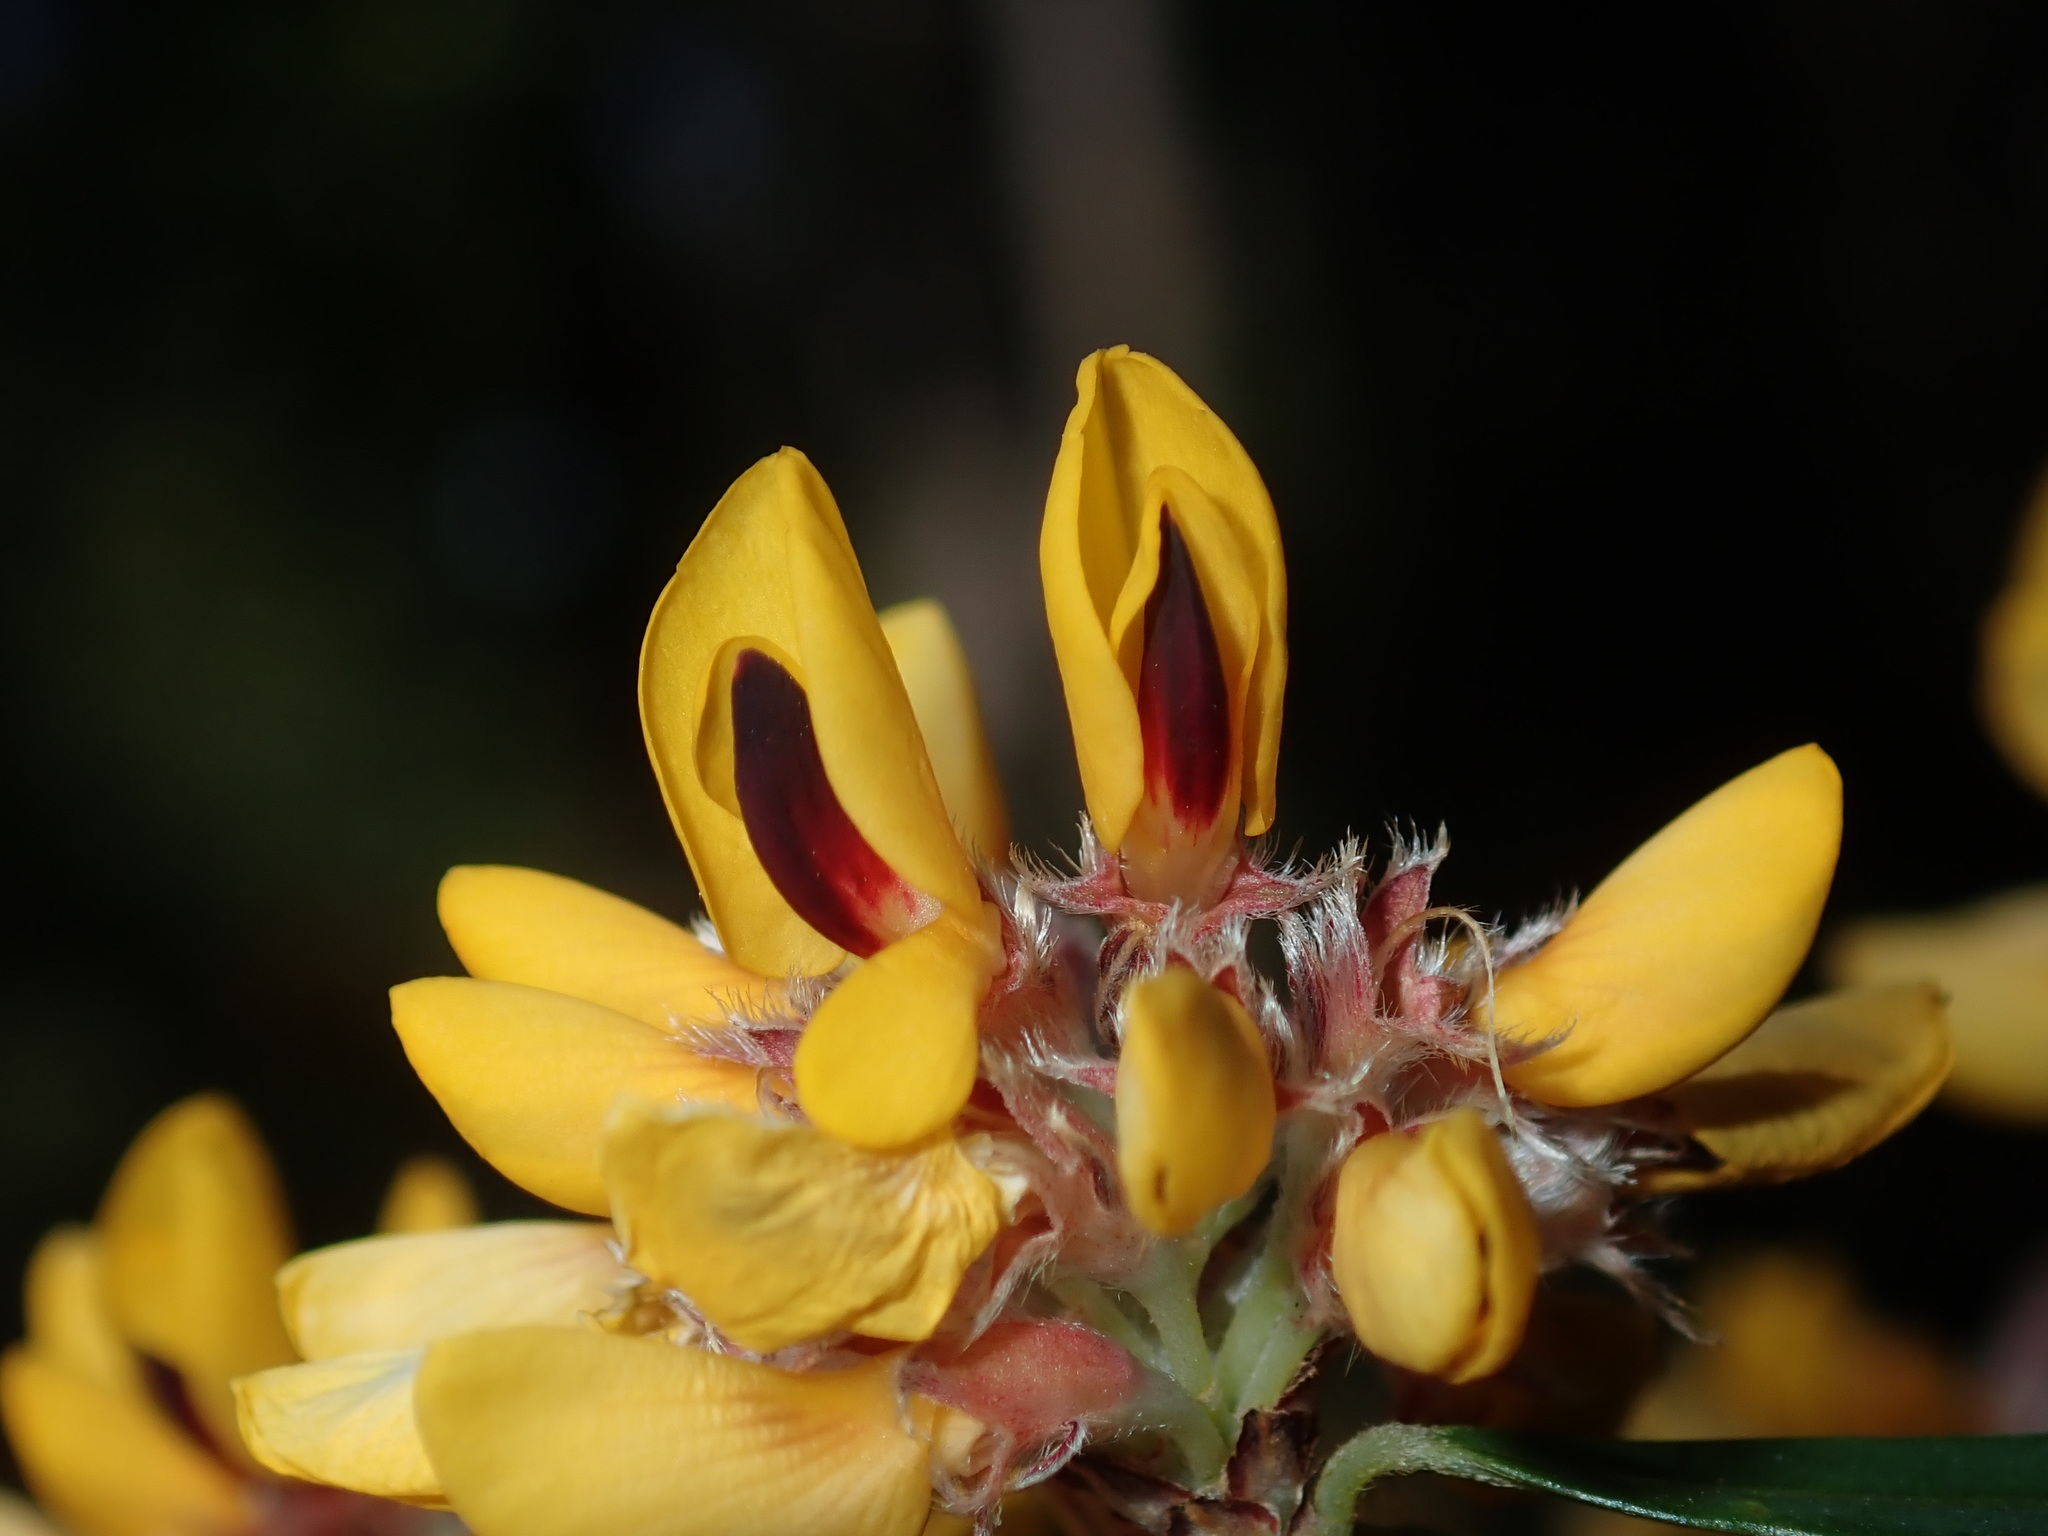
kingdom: Plantae
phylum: Tracheophyta
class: Magnoliopsida
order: Fabales
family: Fabaceae
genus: Pultenaea
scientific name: Pultenaea daphnoides
